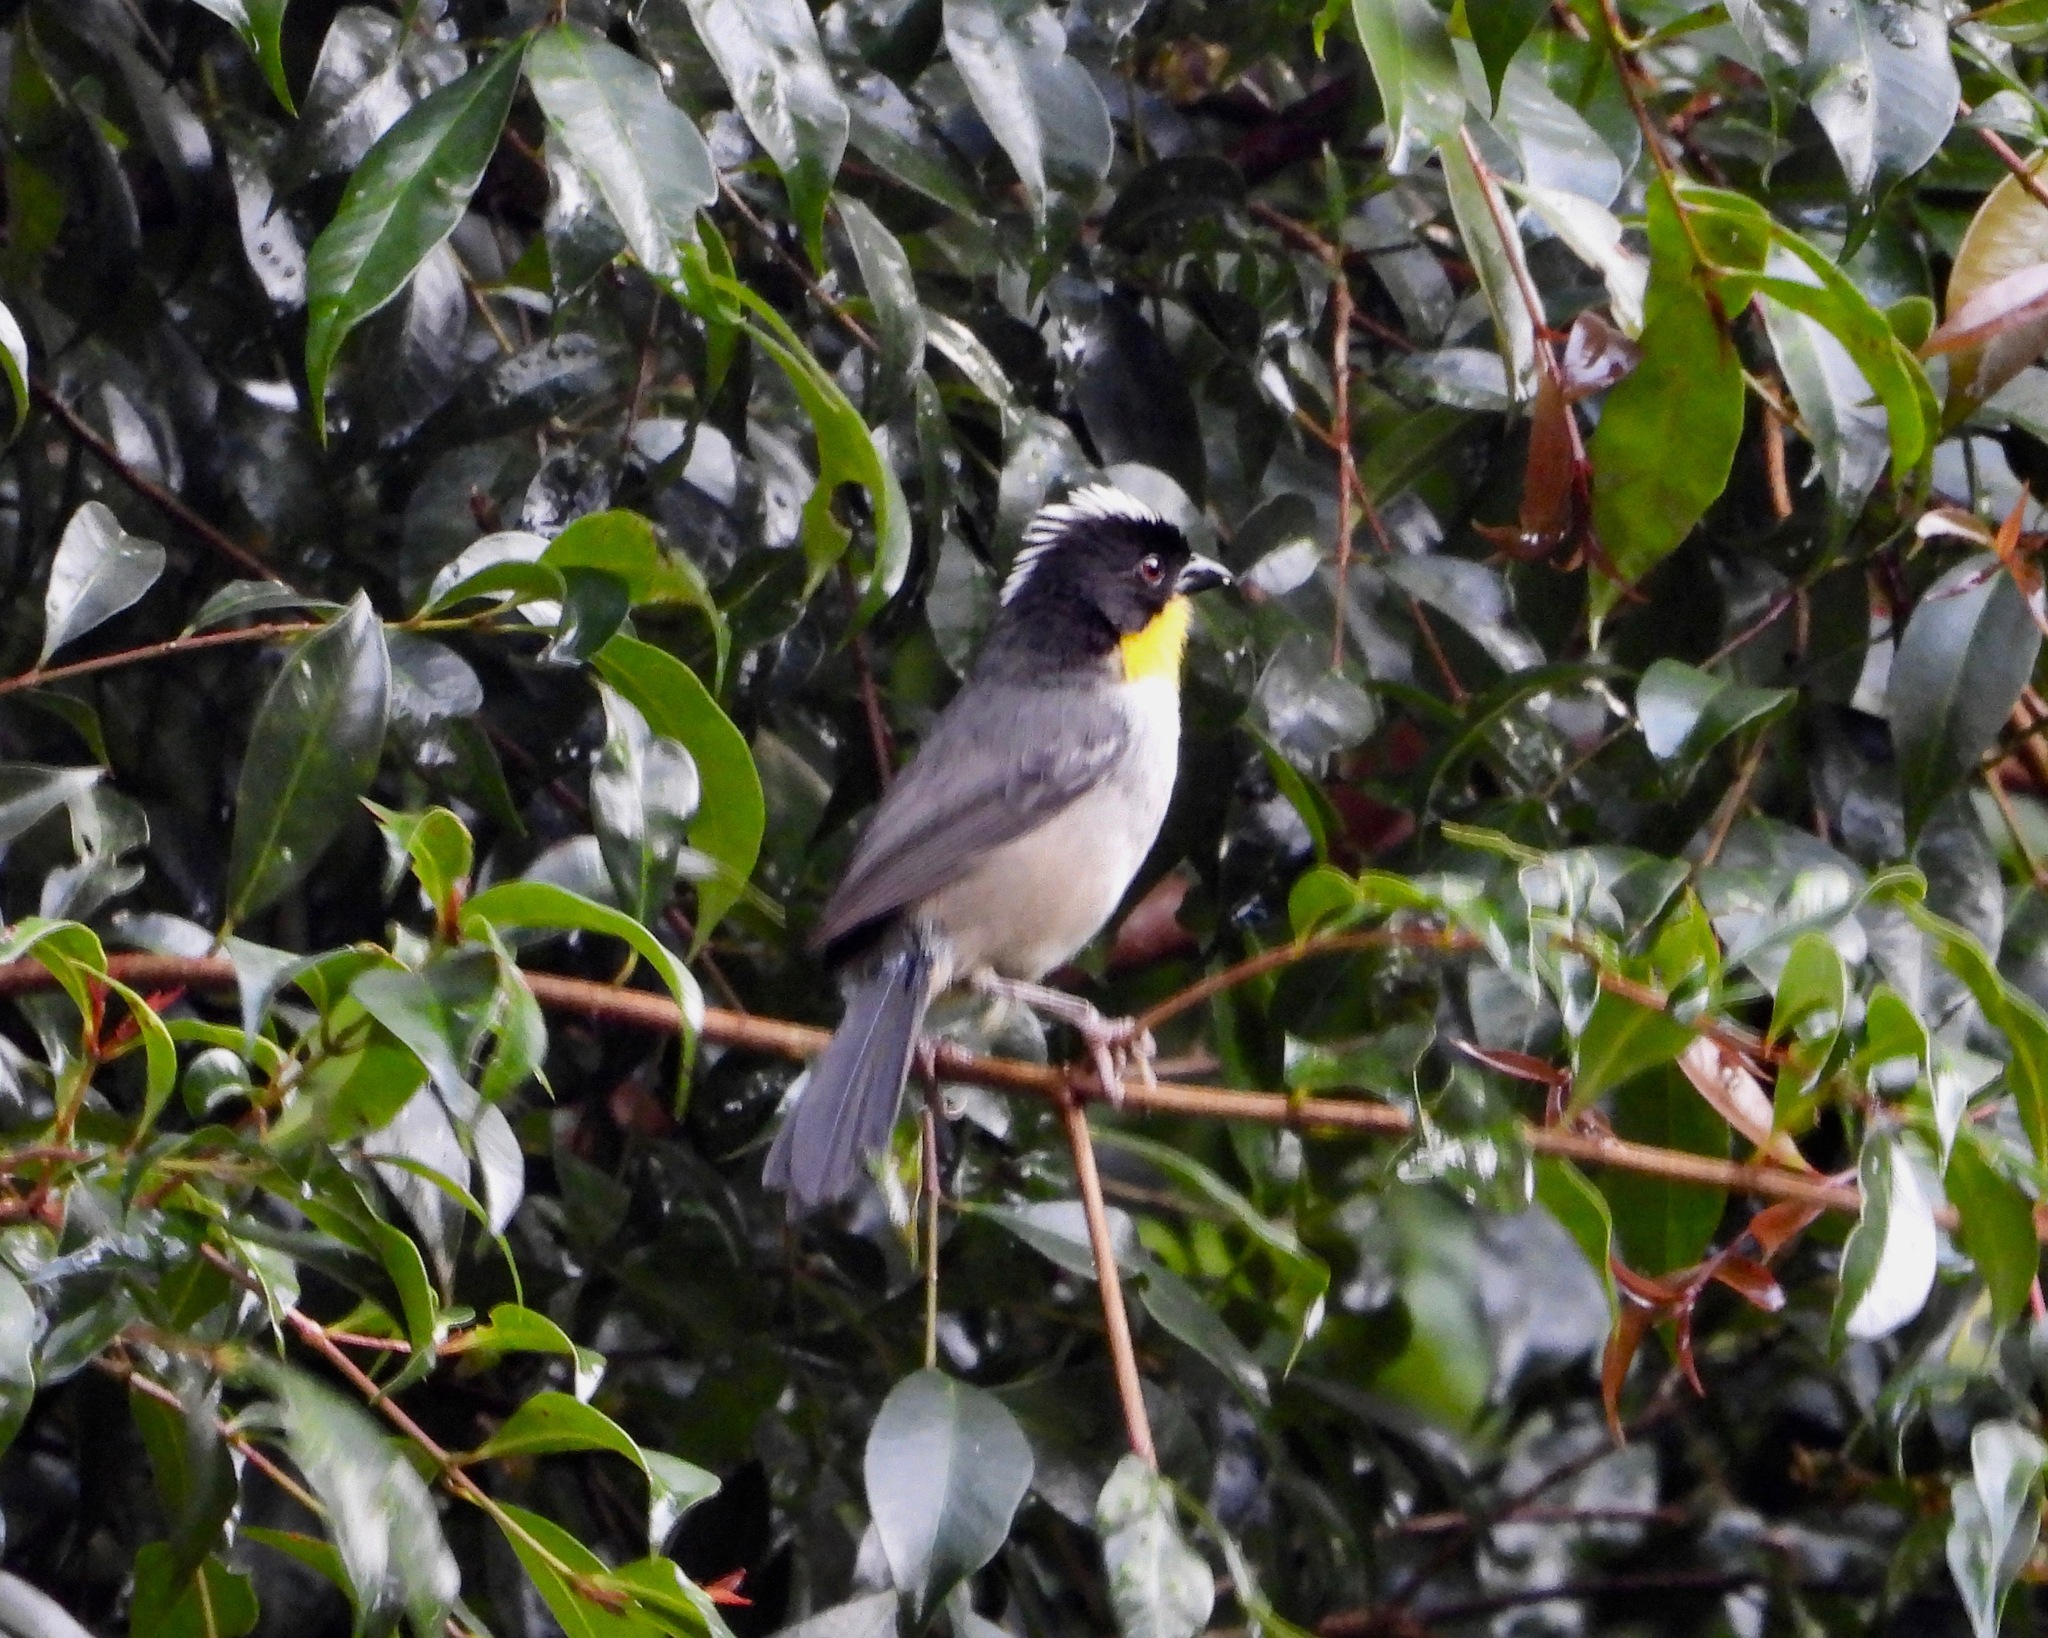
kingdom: Animalia
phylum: Chordata
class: Aves
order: Passeriformes
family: Passerellidae
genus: Atlapetes
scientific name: Atlapetes albinucha
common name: White-naped brush-finch
